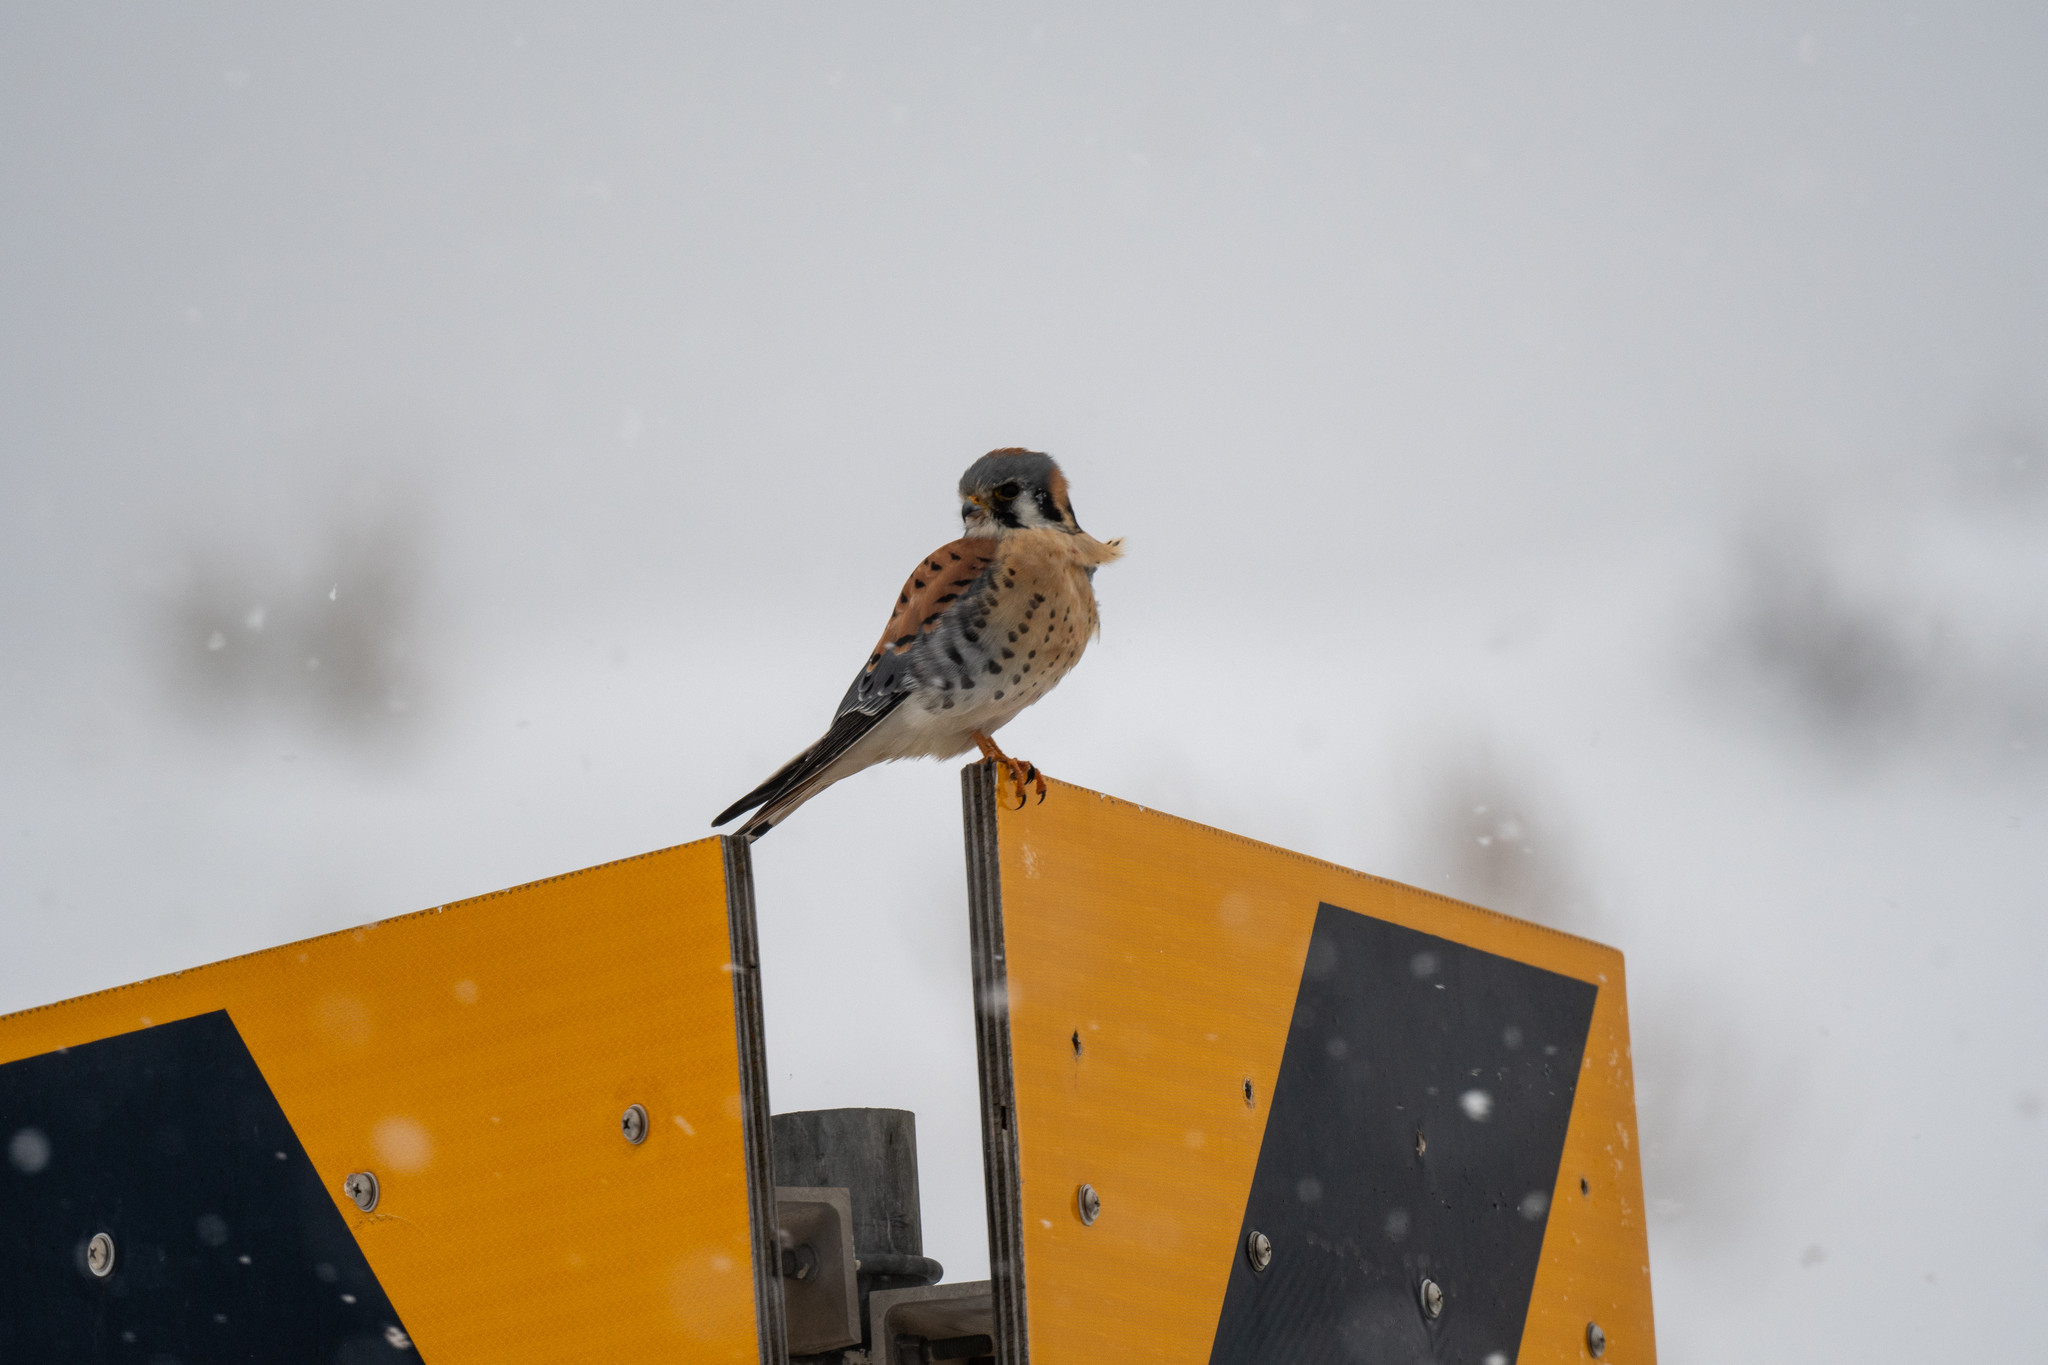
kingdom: Animalia
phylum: Chordata
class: Aves
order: Falconiformes
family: Falconidae
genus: Falco
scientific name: Falco sparverius
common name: American kestrel
